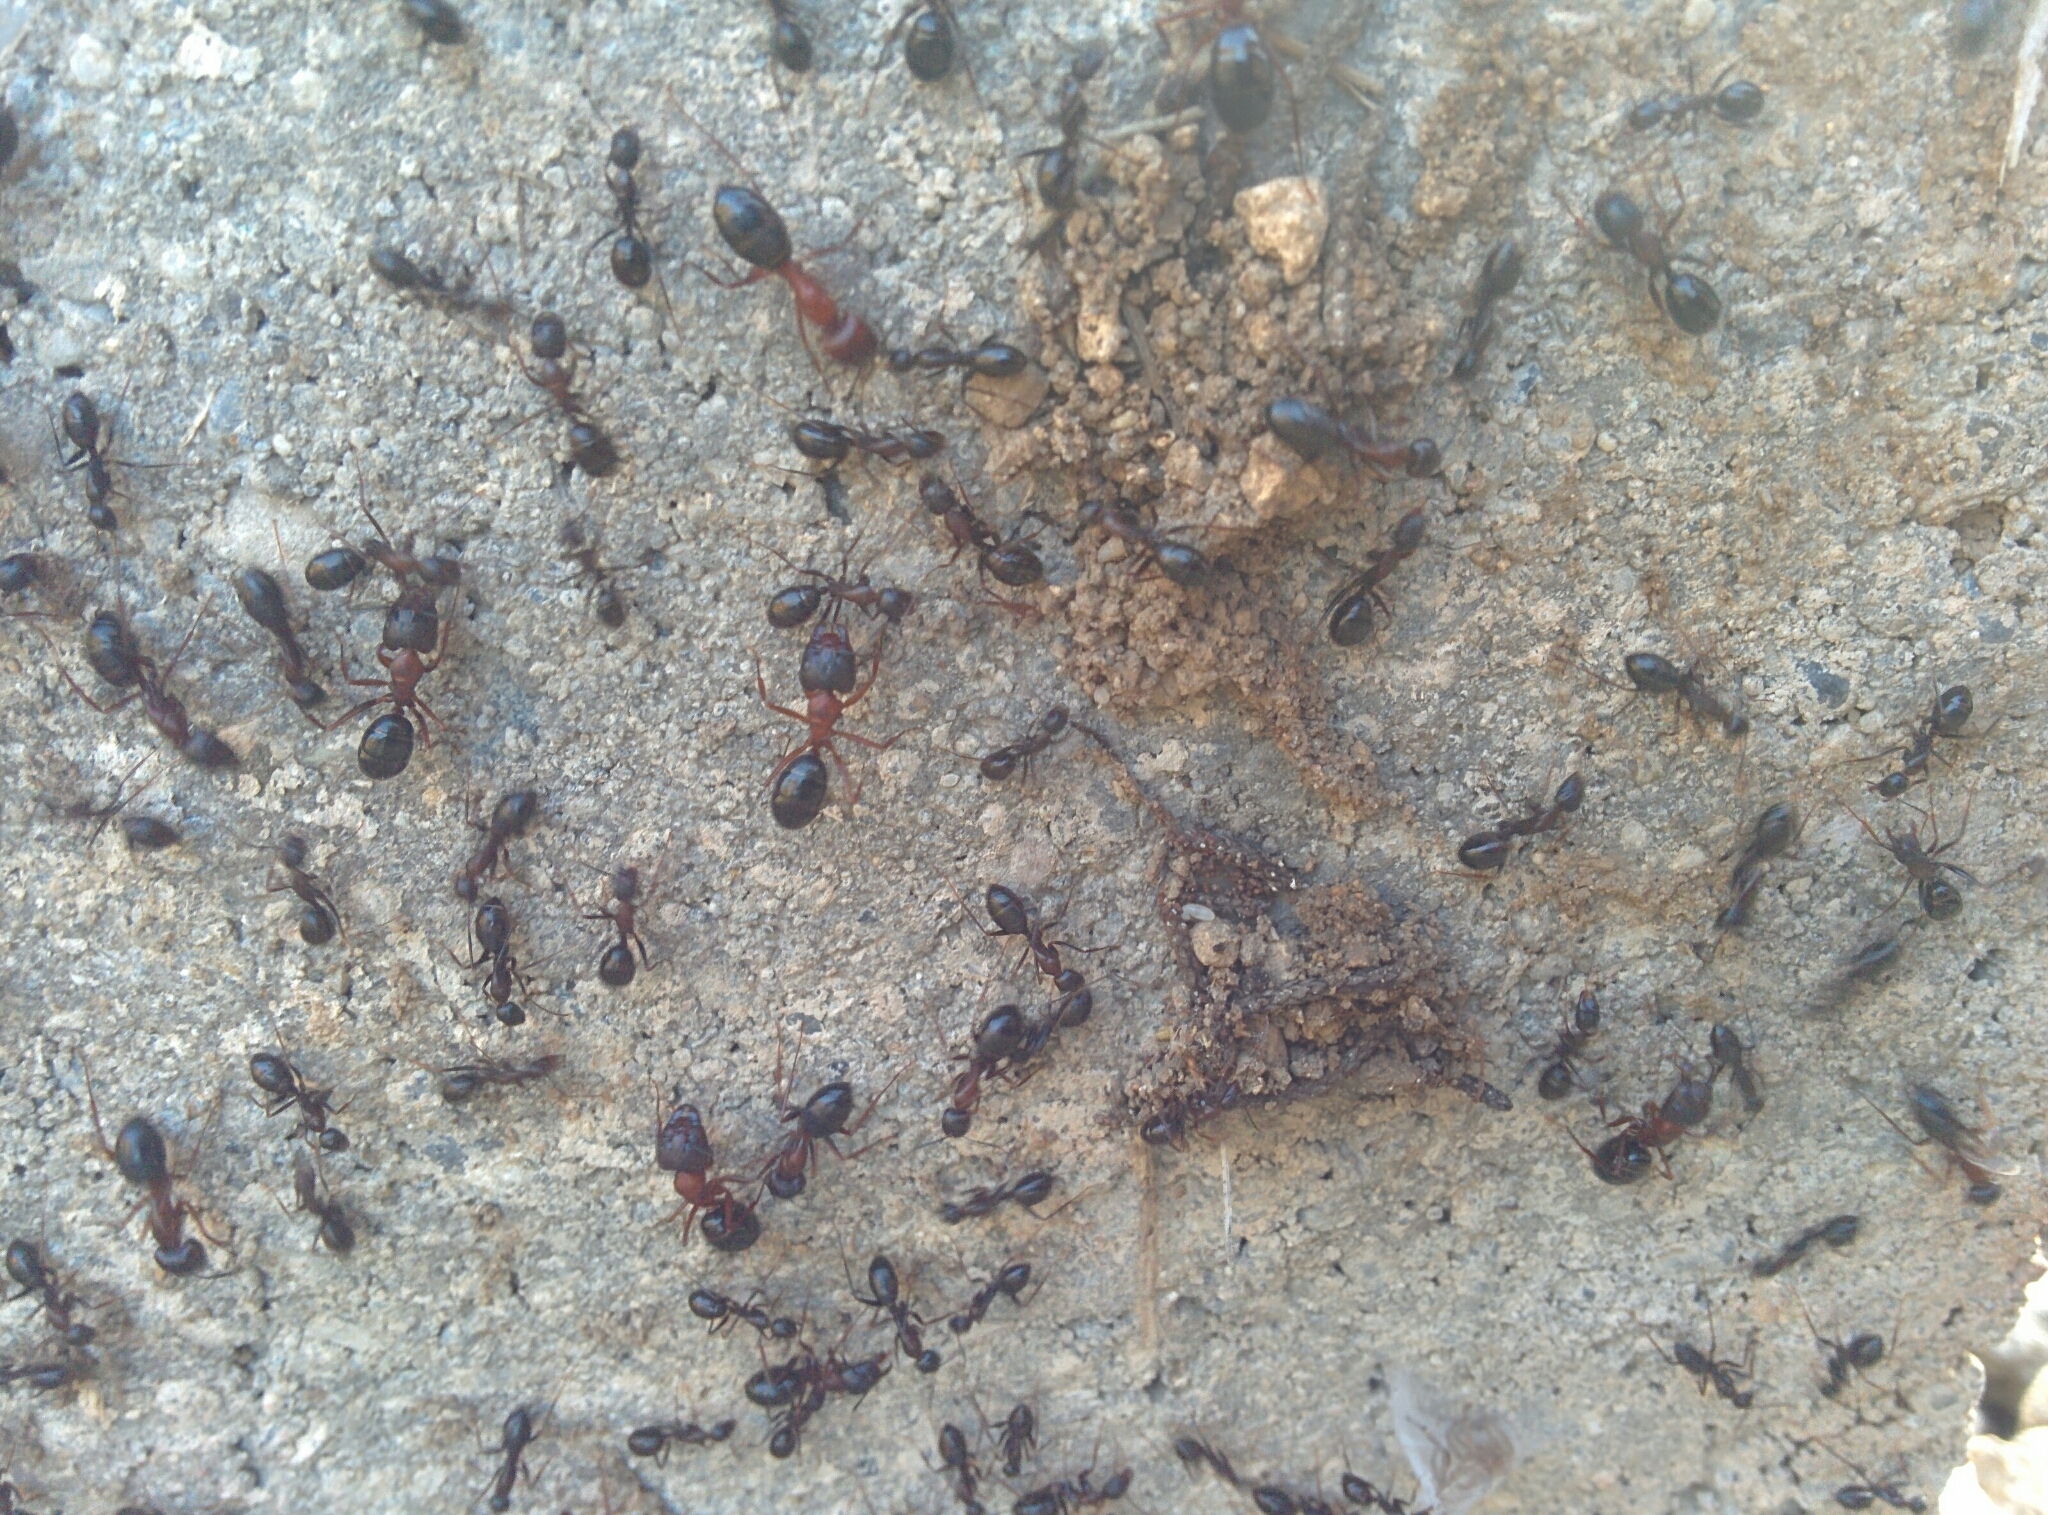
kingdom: Animalia
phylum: Arthropoda
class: Insecta
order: Hymenoptera
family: Formicidae
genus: Camponotus
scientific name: Camponotus sylvaticus
